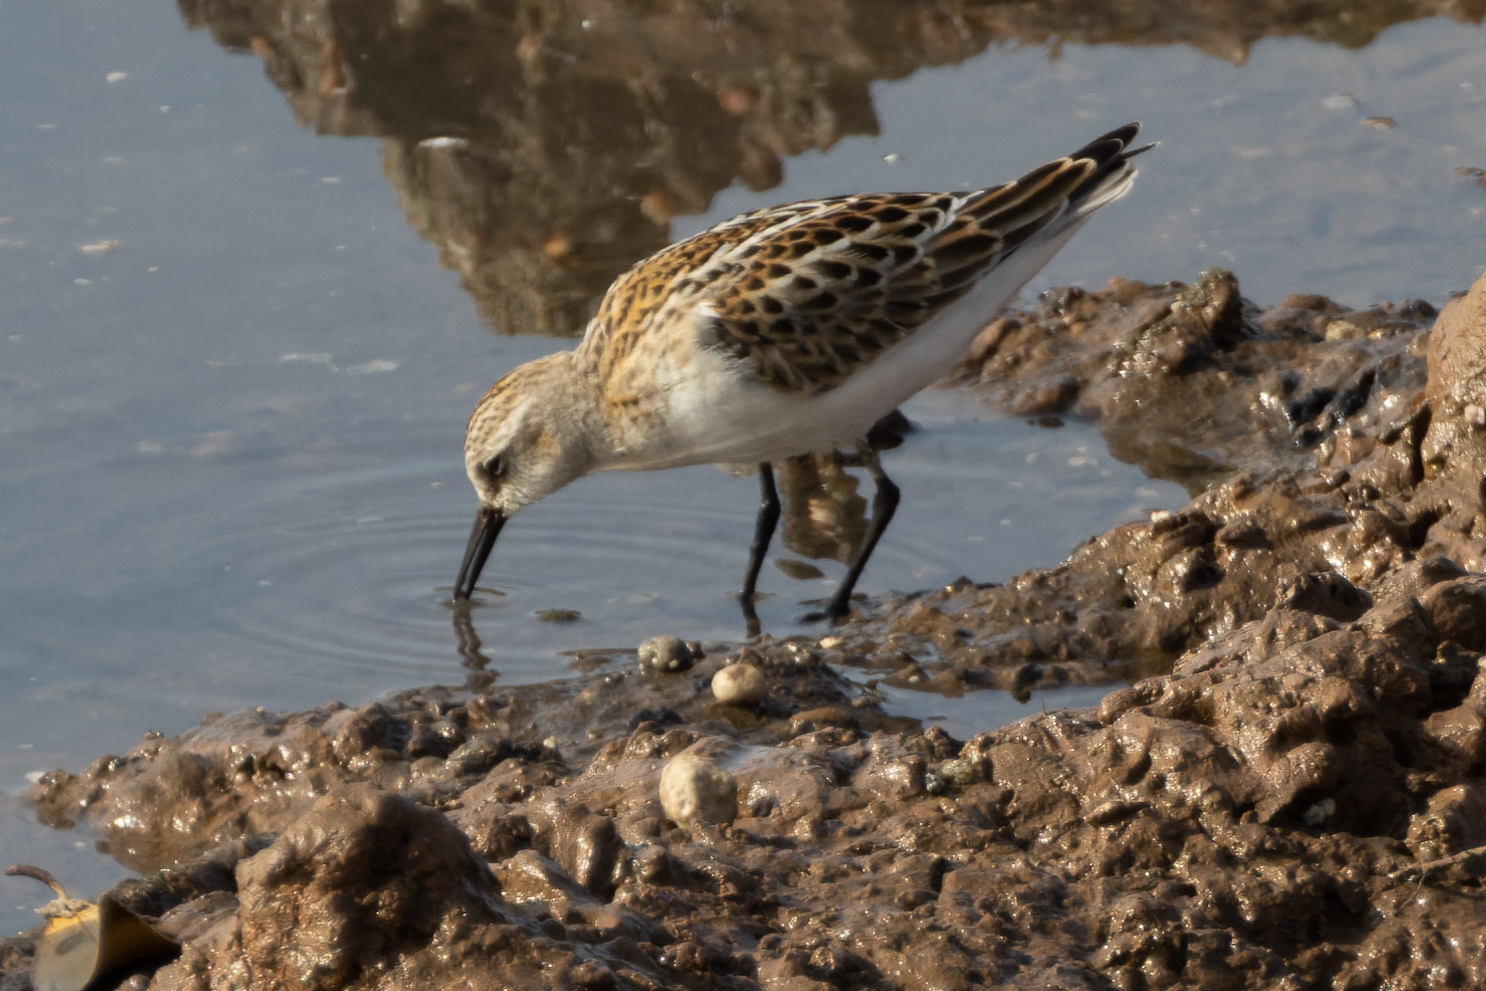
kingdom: Animalia
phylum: Chordata
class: Aves
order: Charadriiformes
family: Scolopacidae
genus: Calidris
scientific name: Calidris minuta
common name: Little stint
